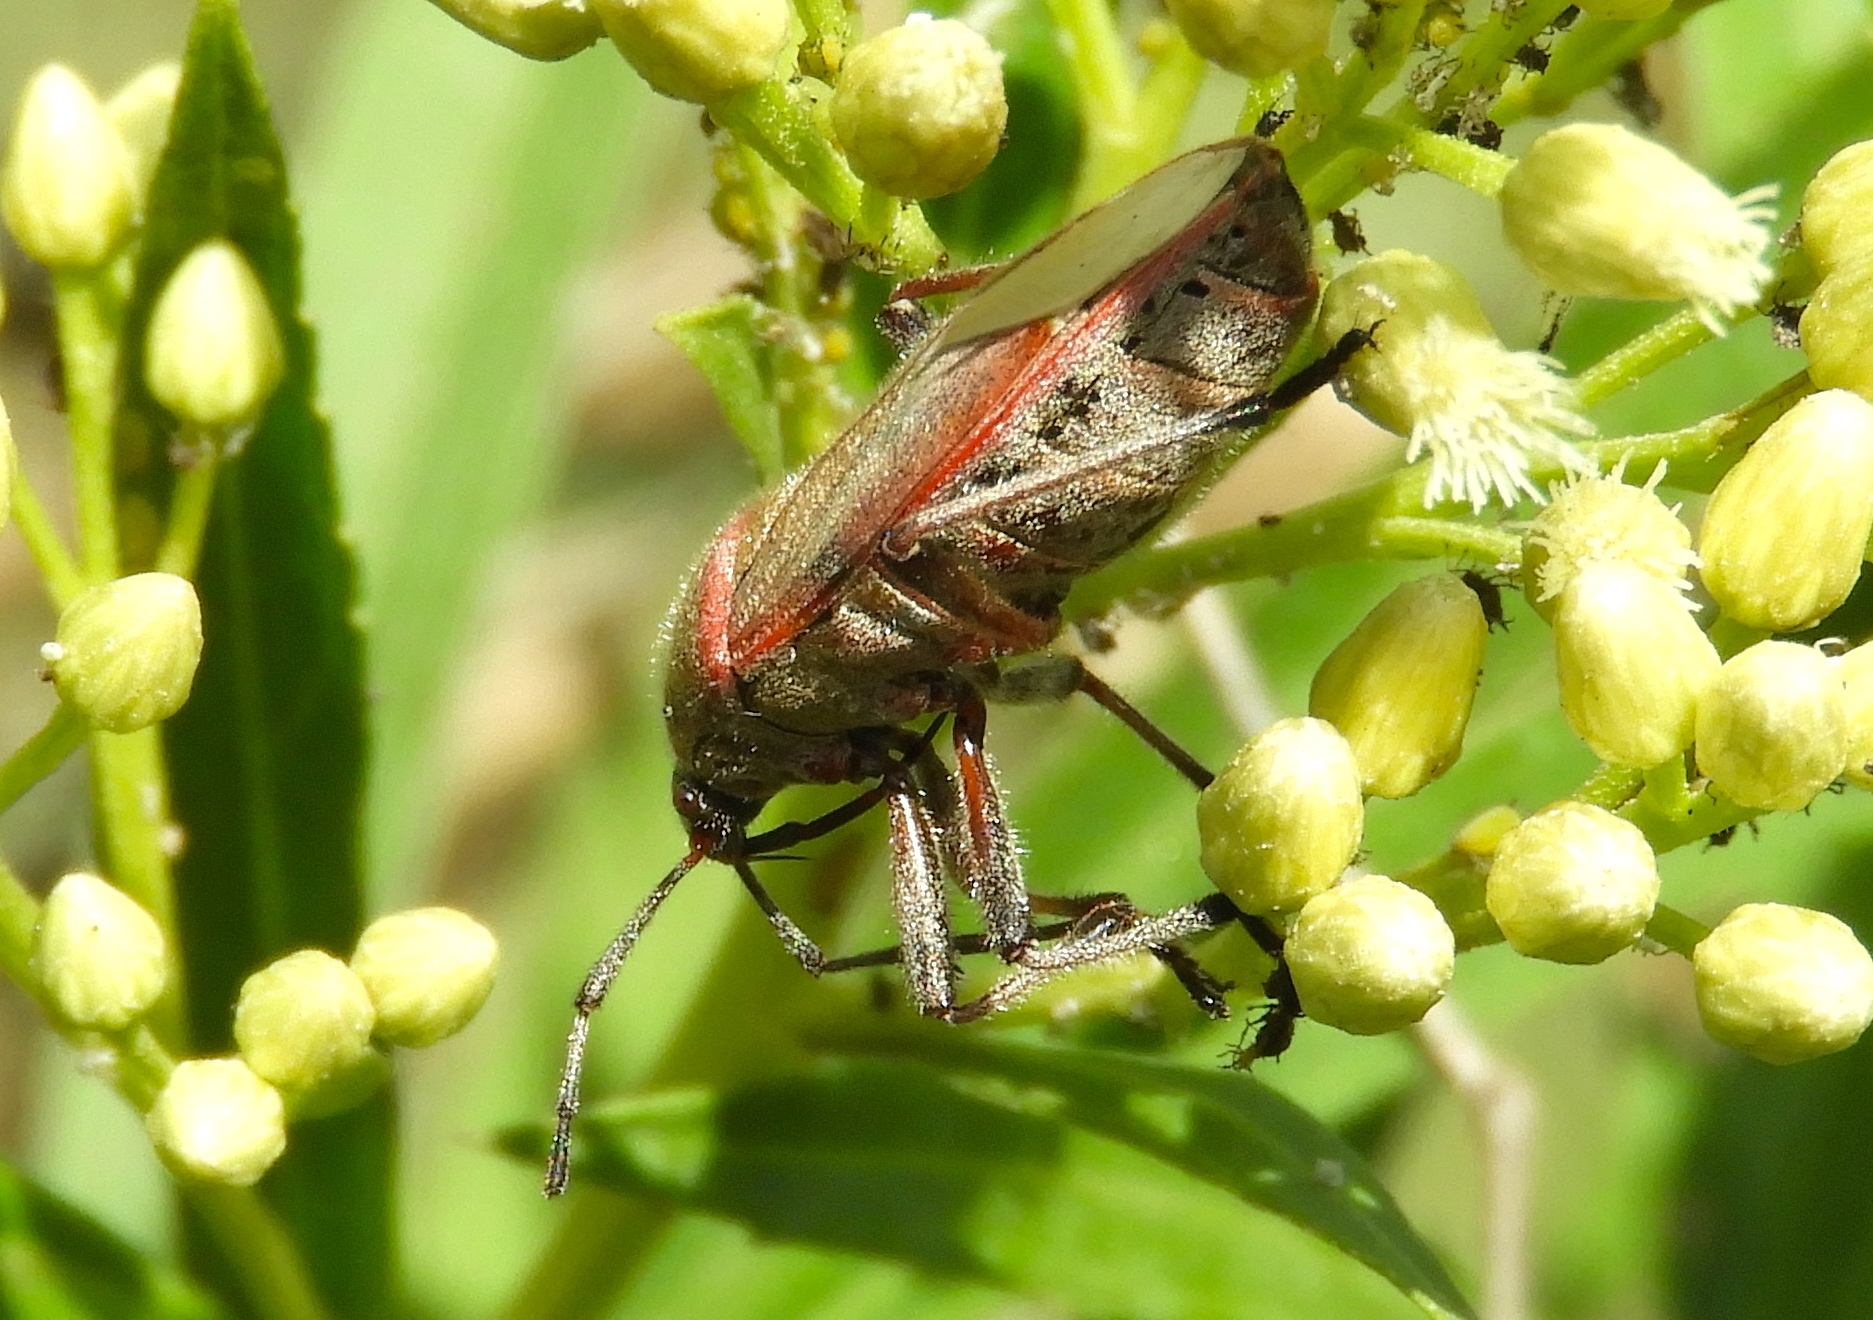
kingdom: Animalia
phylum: Arthropoda
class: Insecta
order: Hemiptera
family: Largidae
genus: Largus
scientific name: Largus
